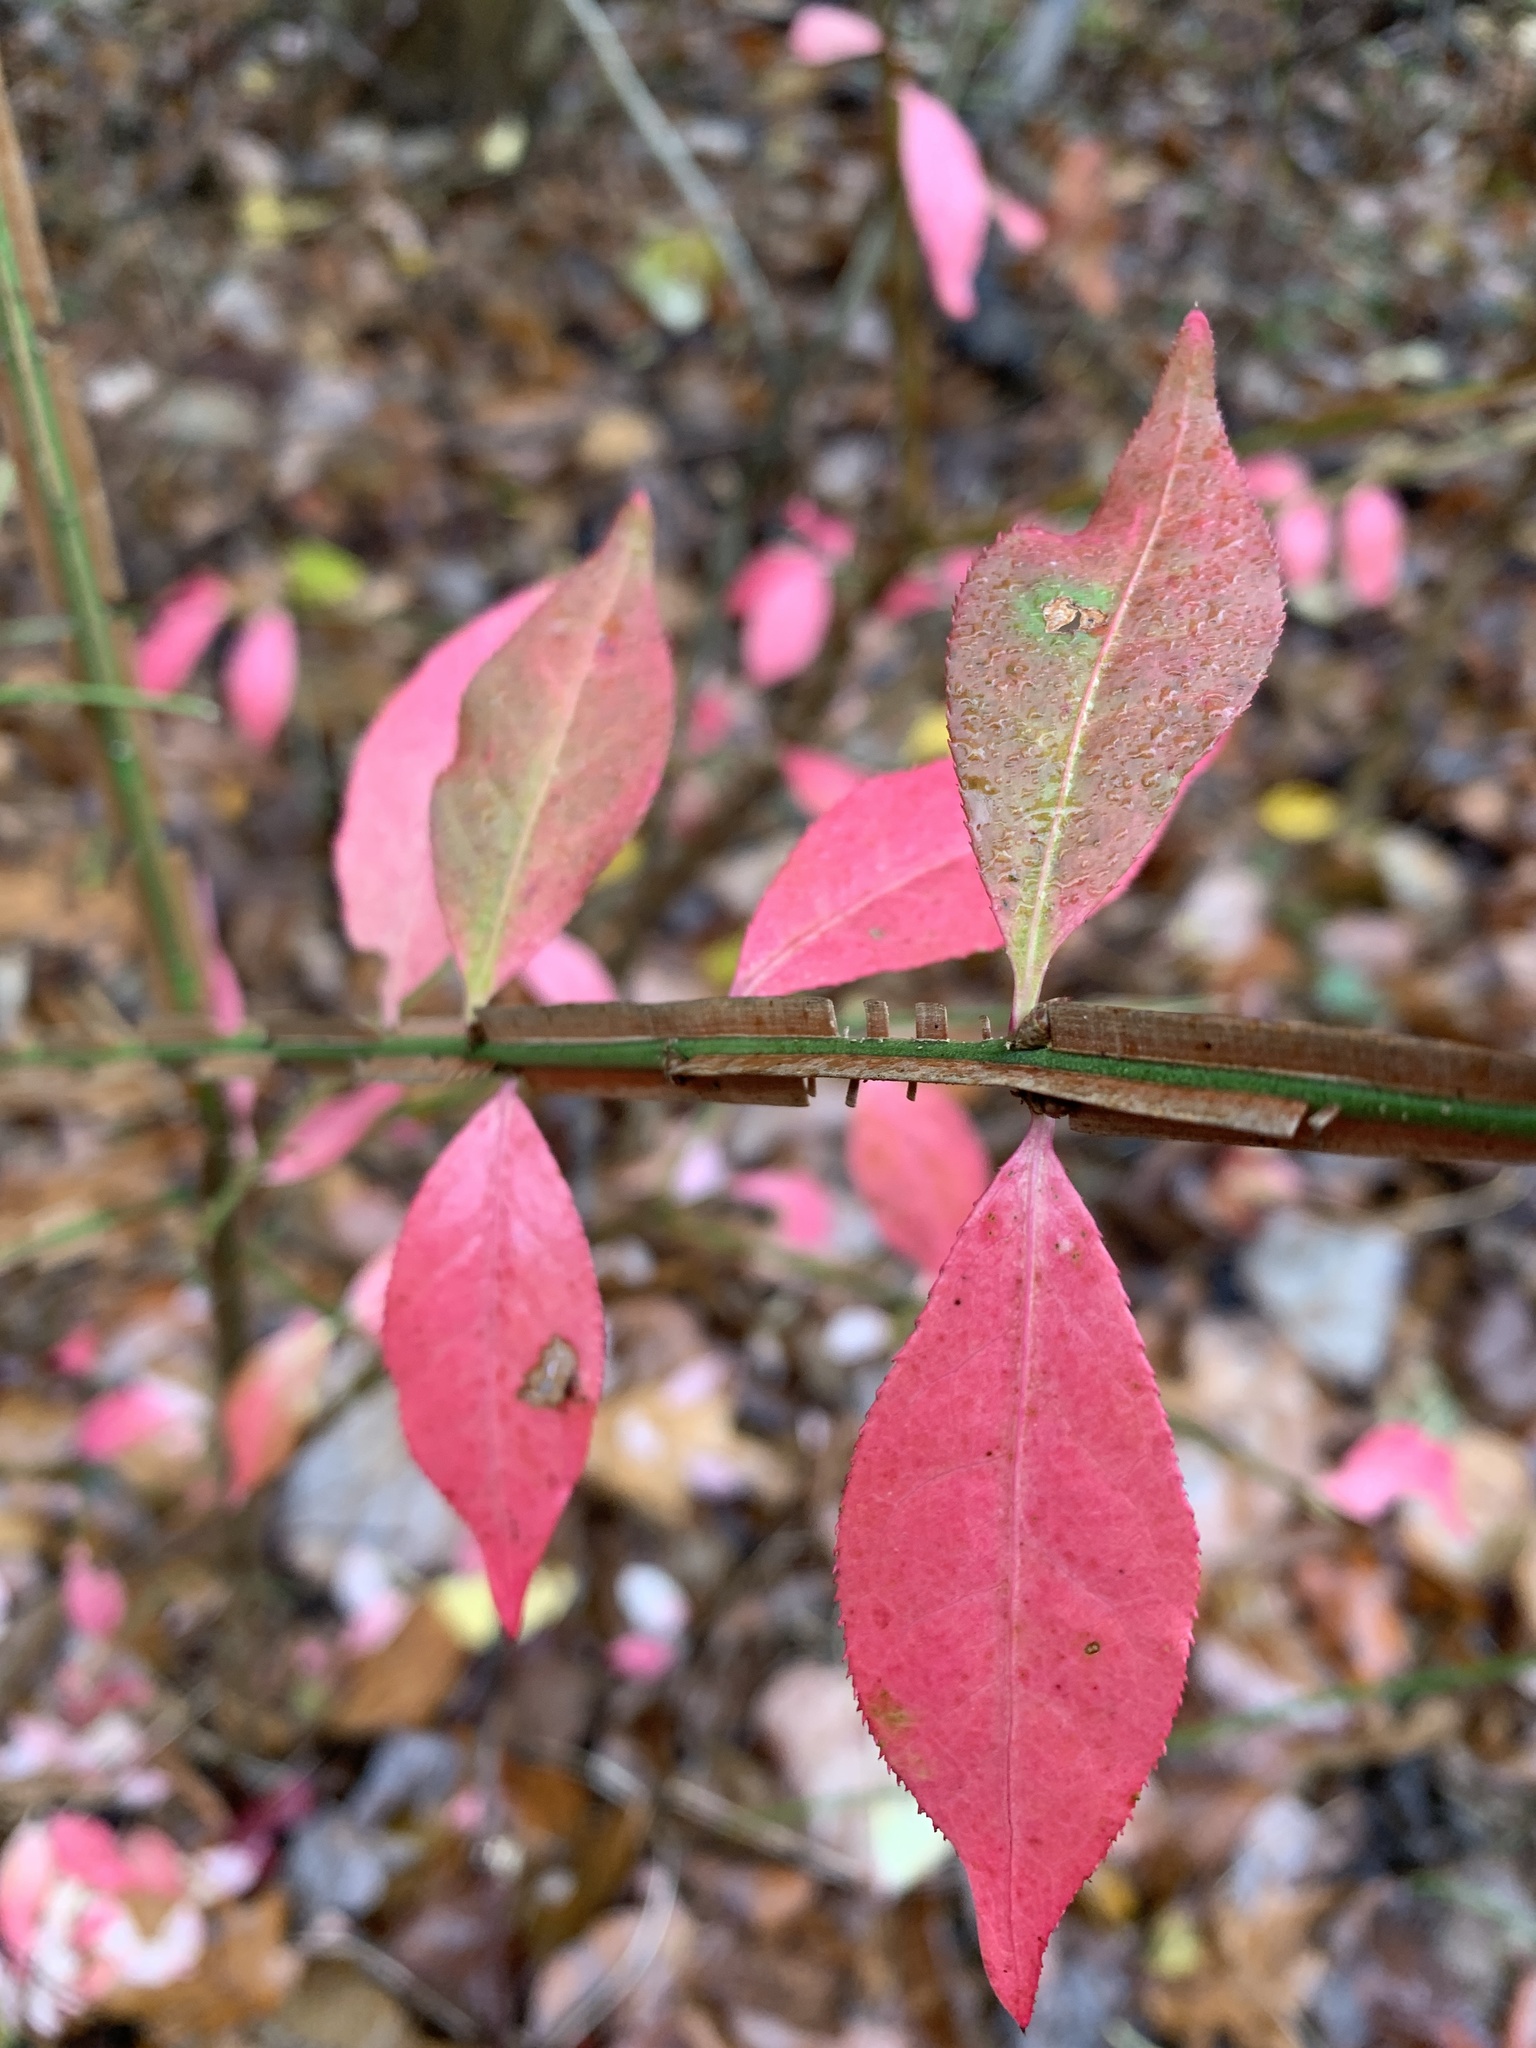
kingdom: Plantae
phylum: Tracheophyta
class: Magnoliopsida
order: Celastrales
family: Celastraceae
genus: Euonymus
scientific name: Euonymus alatus
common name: Winged euonymus
